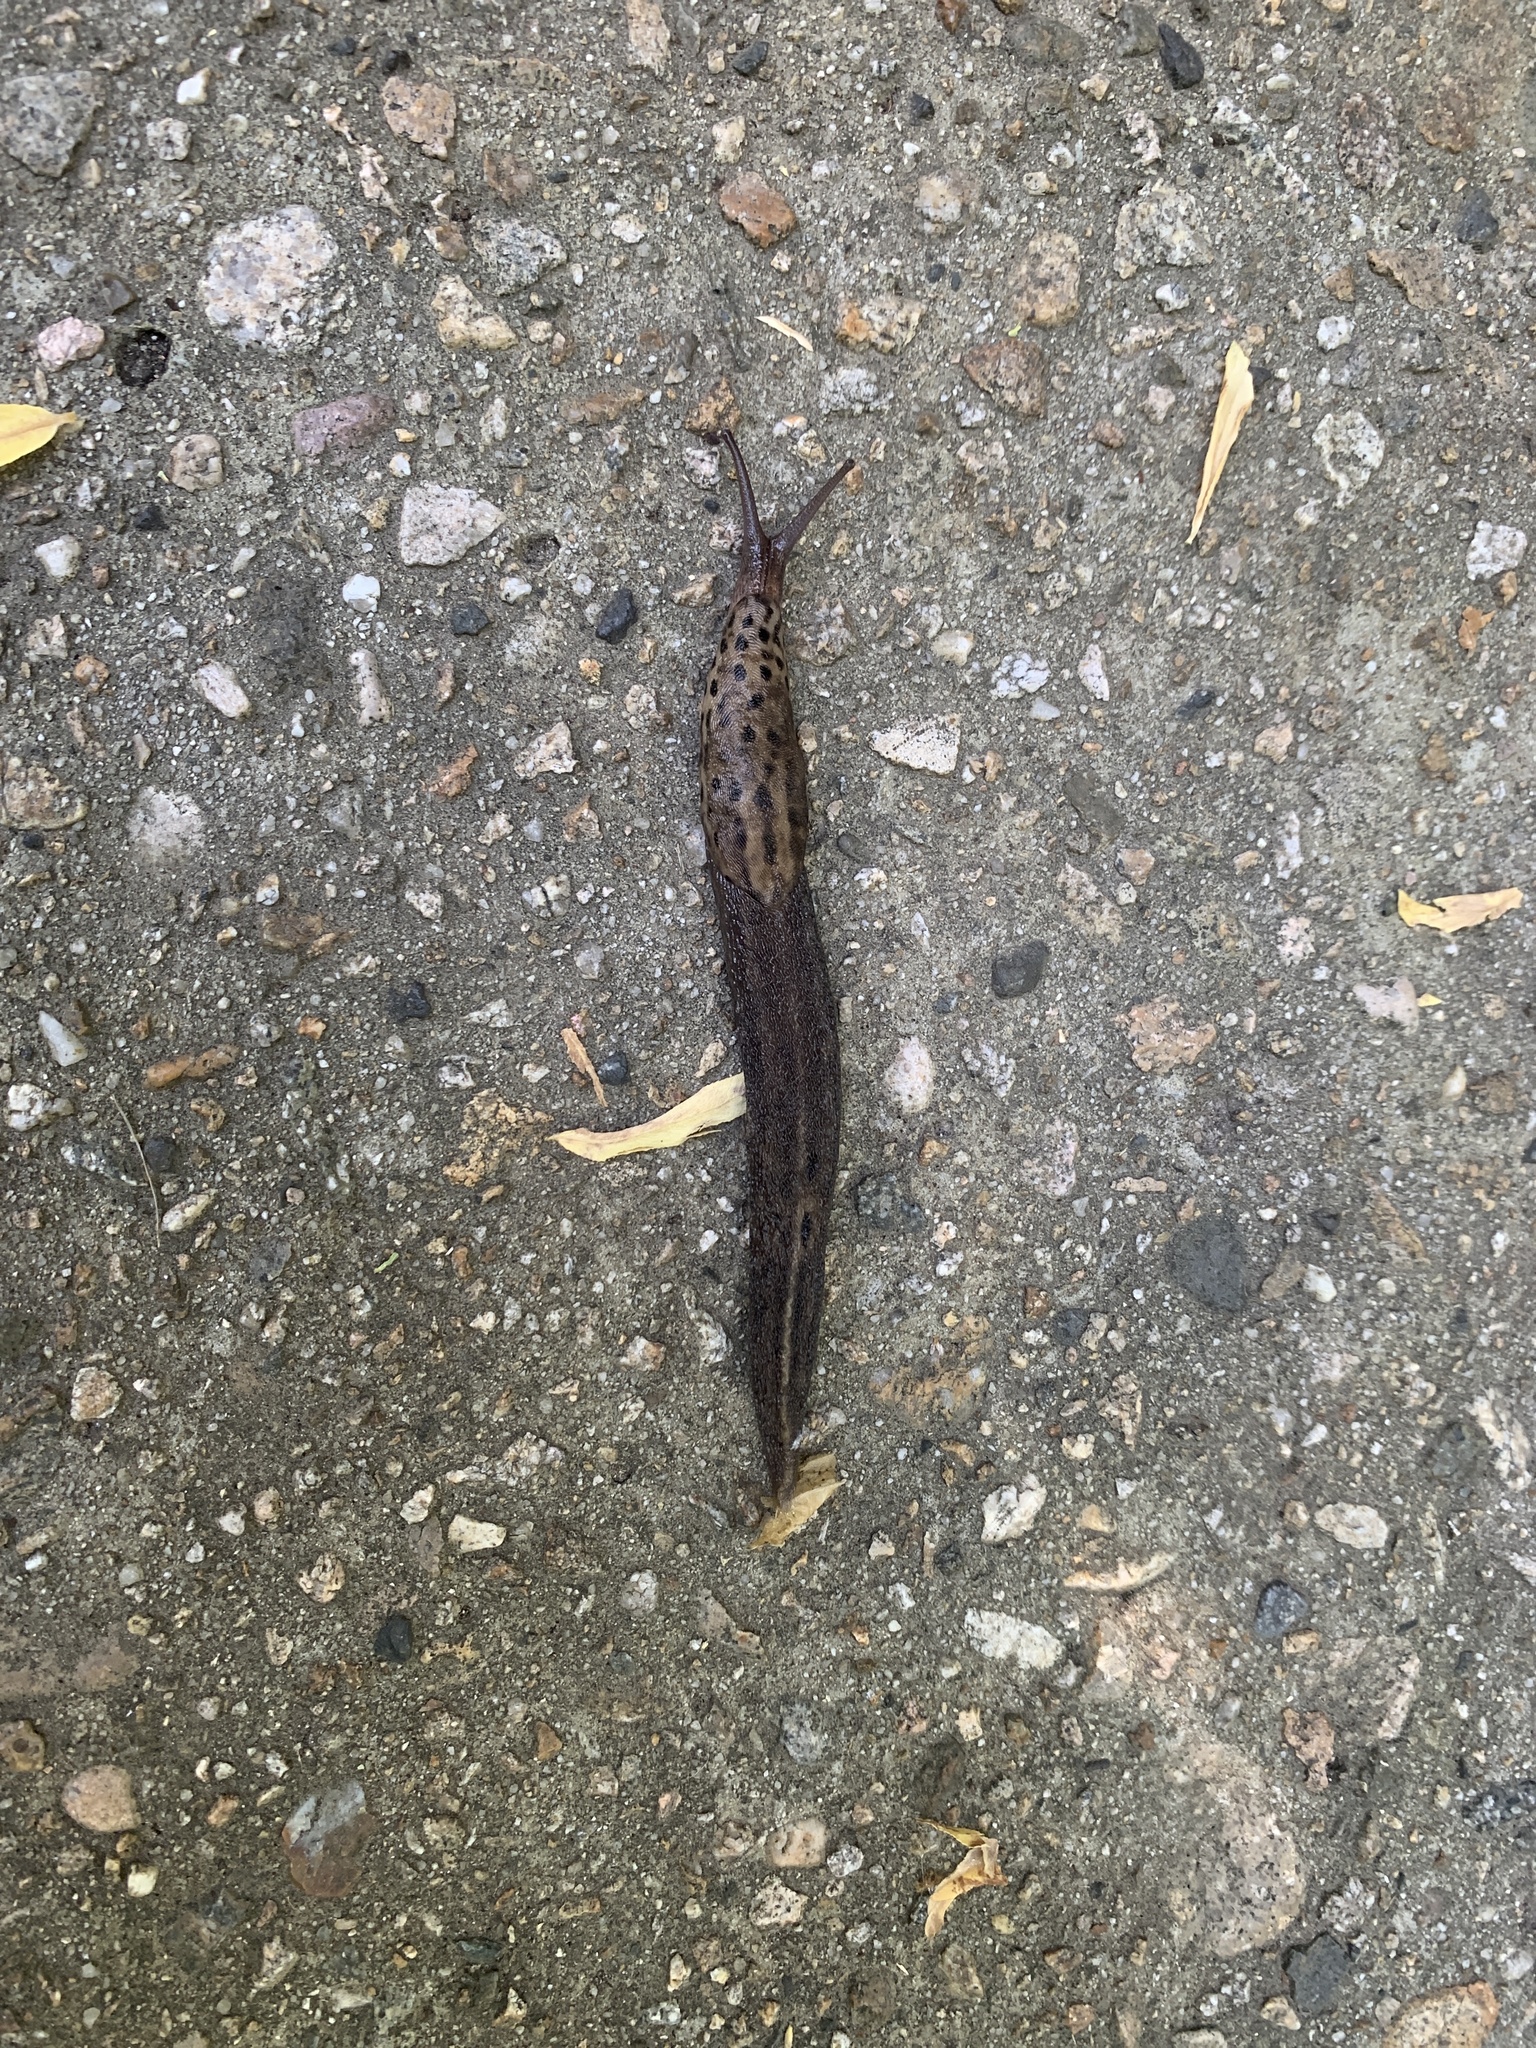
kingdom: Animalia
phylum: Mollusca
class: Gastropoda
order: Stylommatophora
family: Limacidae
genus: Limax
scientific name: Limax maximus
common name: Great grey slug
